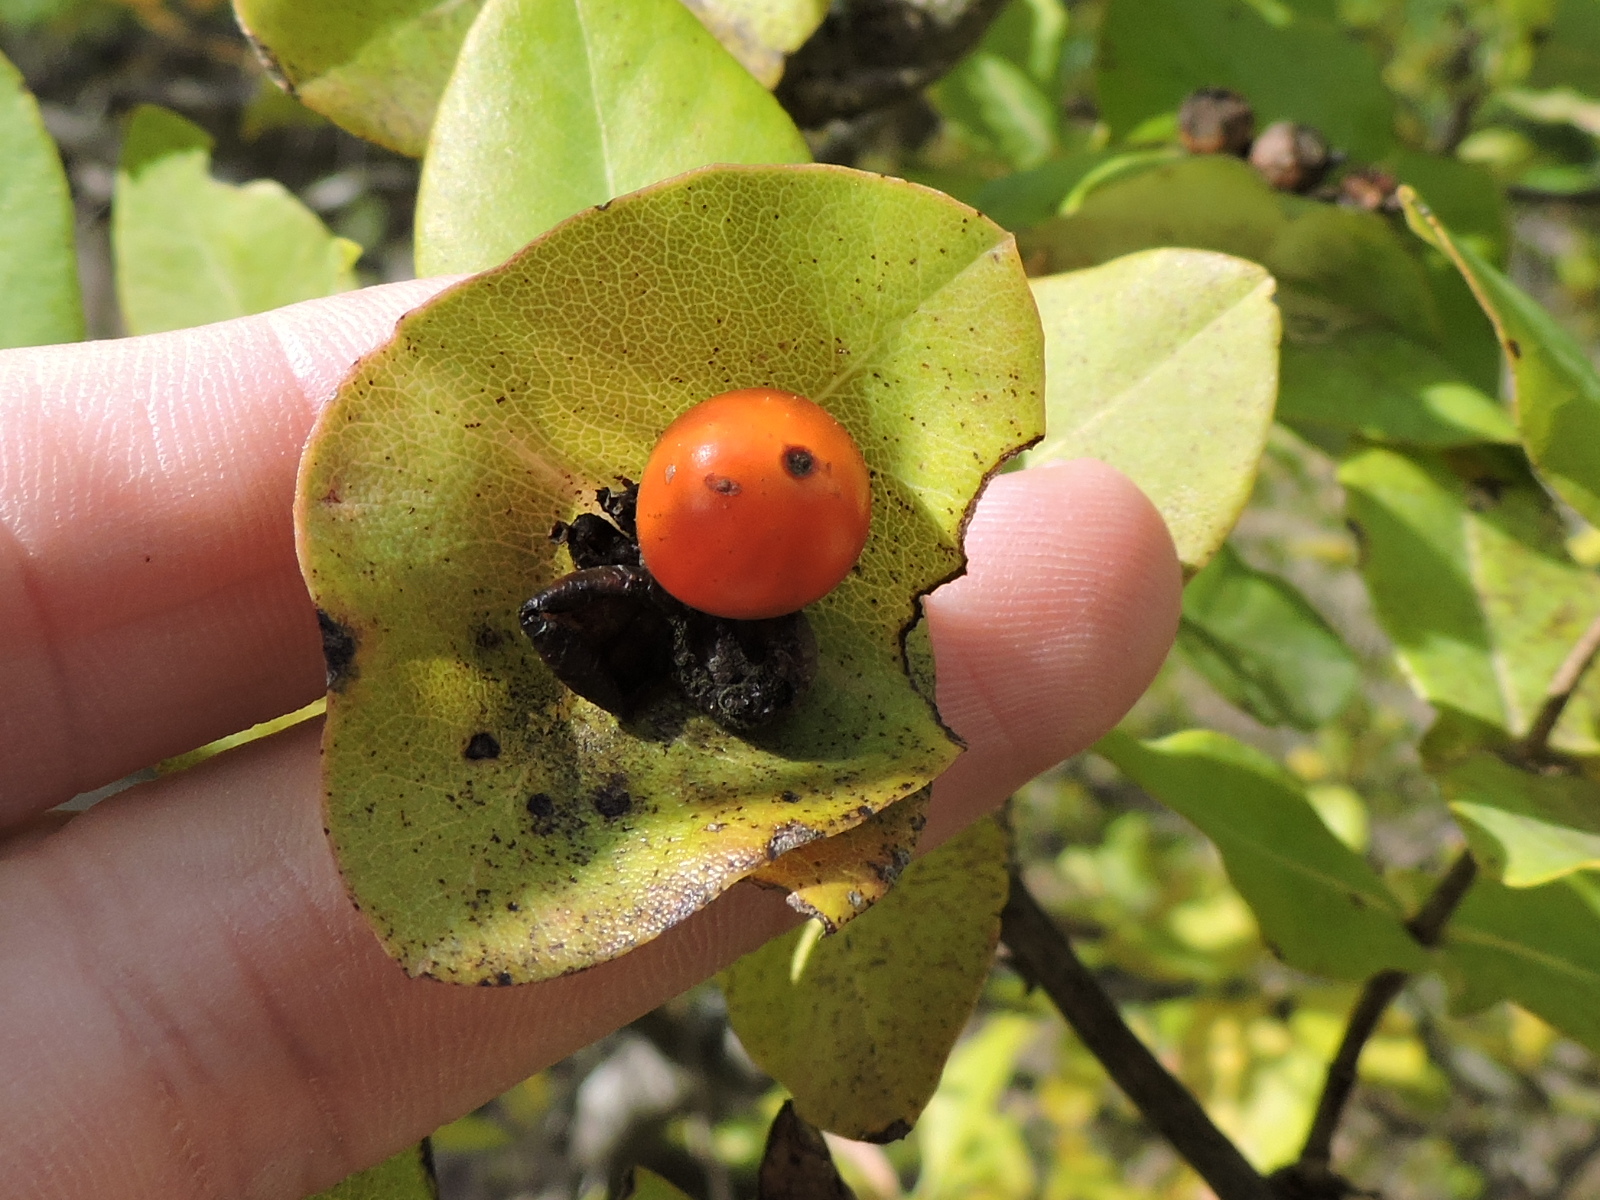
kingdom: Plantae
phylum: Tracheophyta
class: Magnoliopsida
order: Dipsacales
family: Caprifoliaceae
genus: Lonicera
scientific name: Lonicera albiflora
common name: White honeysuckle
